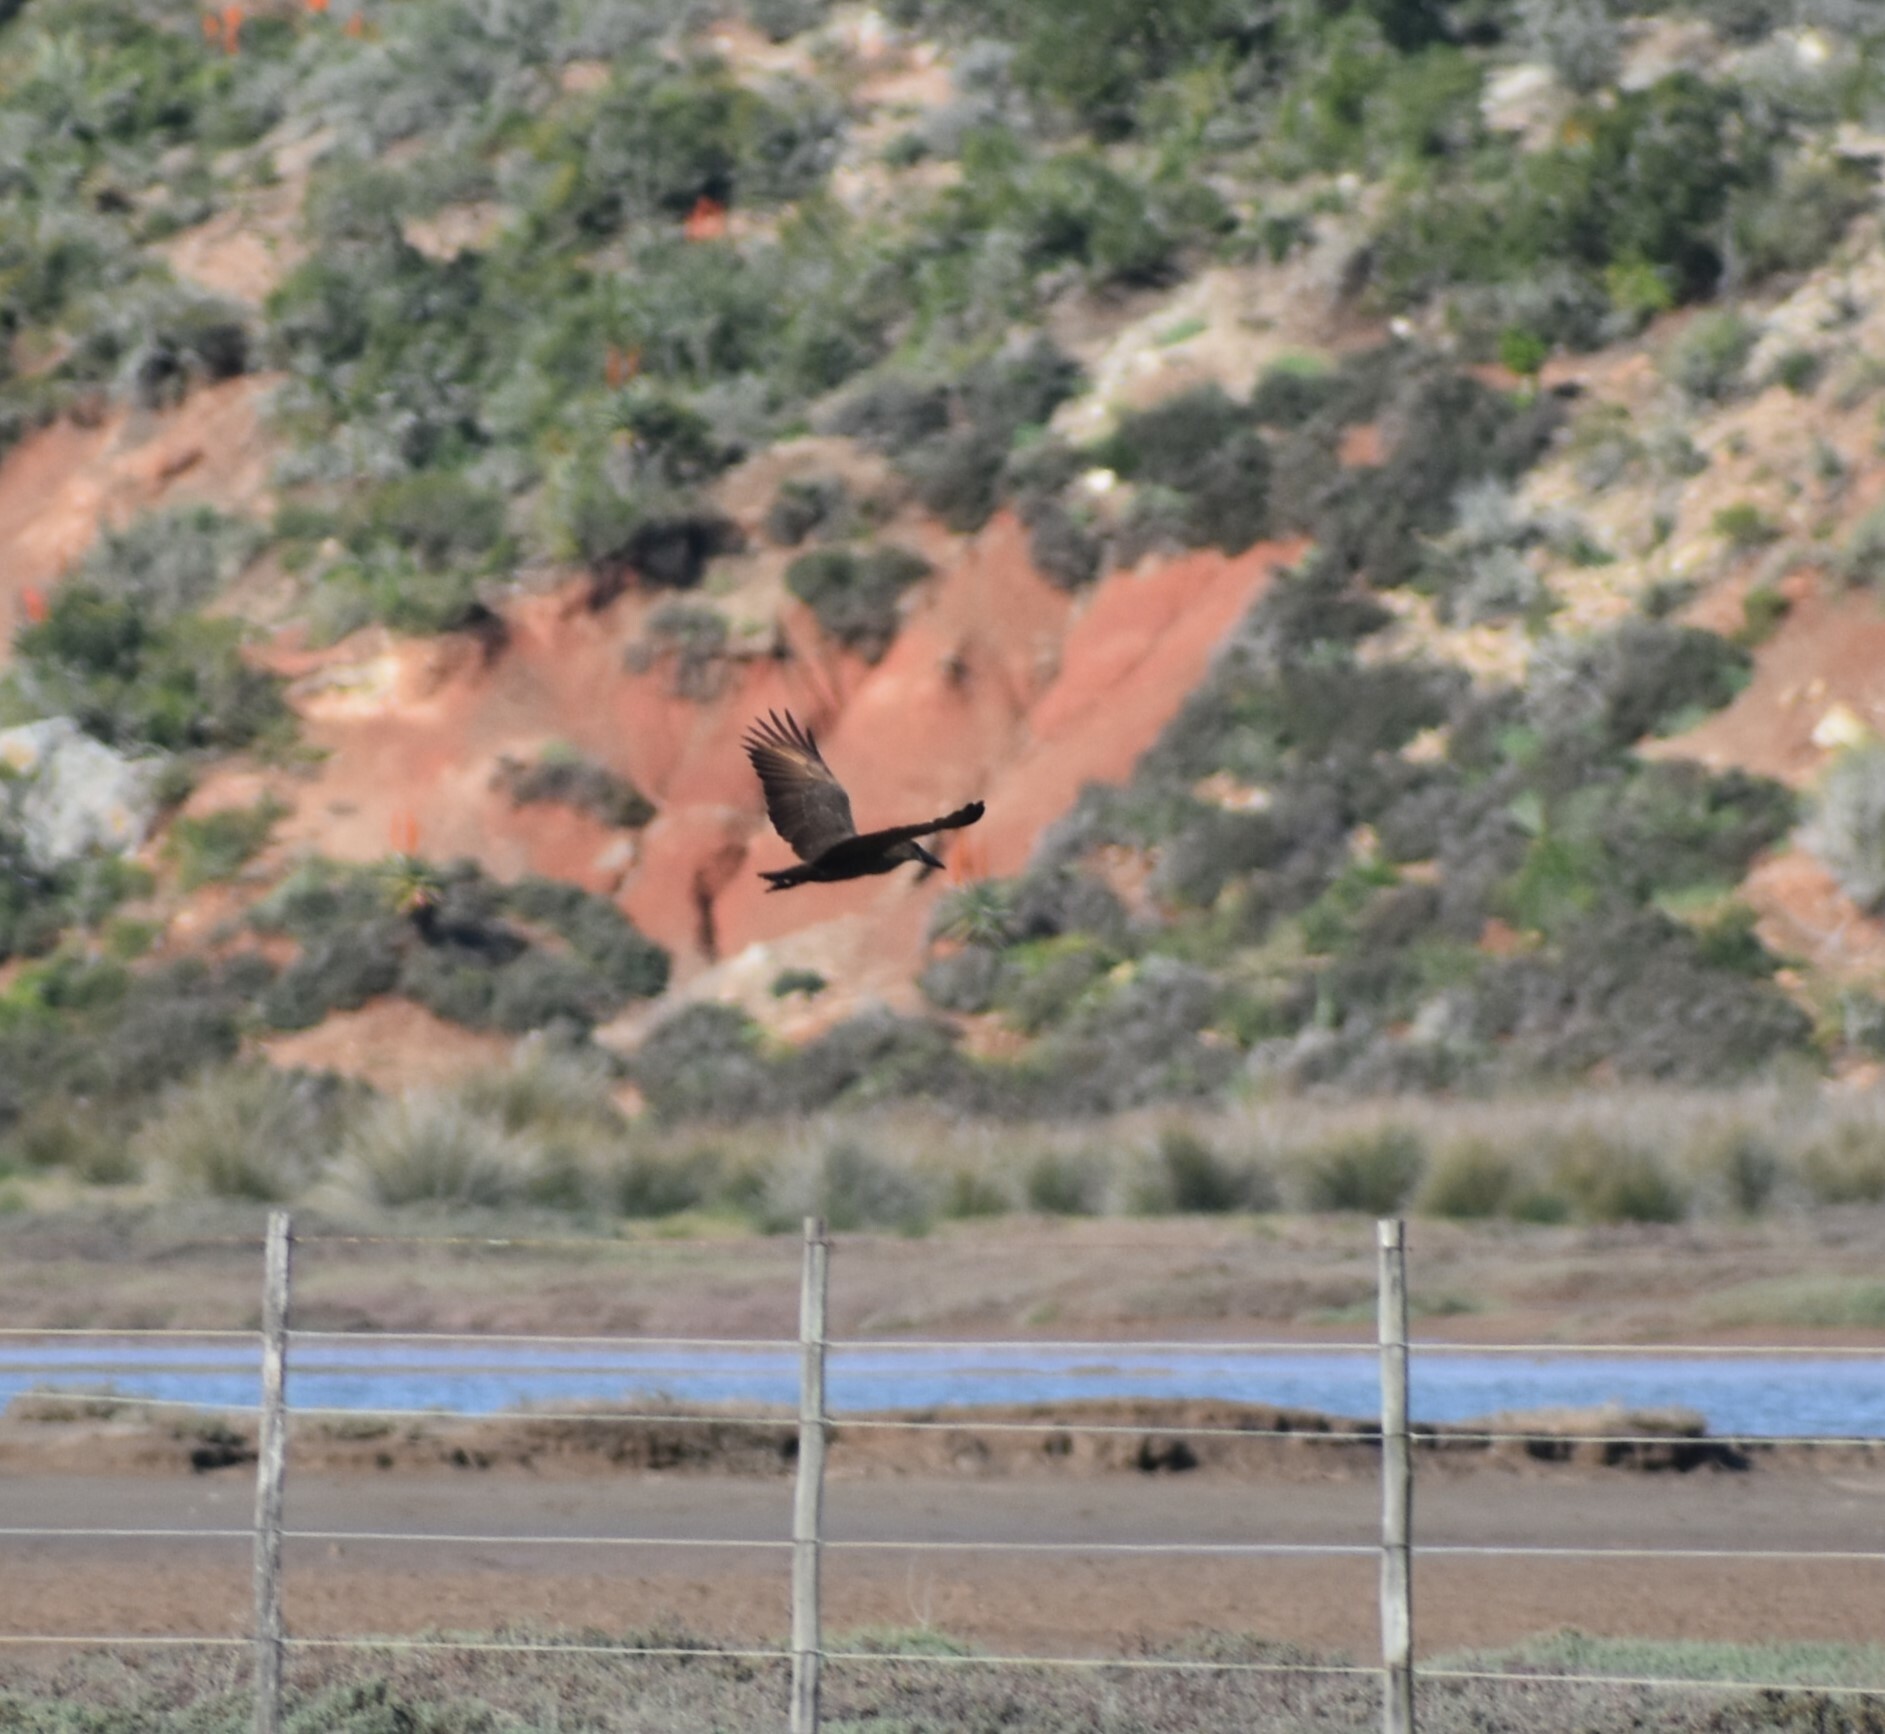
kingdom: Animalia
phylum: Chordata
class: Aves
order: Pelecaniformes
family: Scopidae
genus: Scopus
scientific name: Scopus umbretta
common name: Hamerkop
